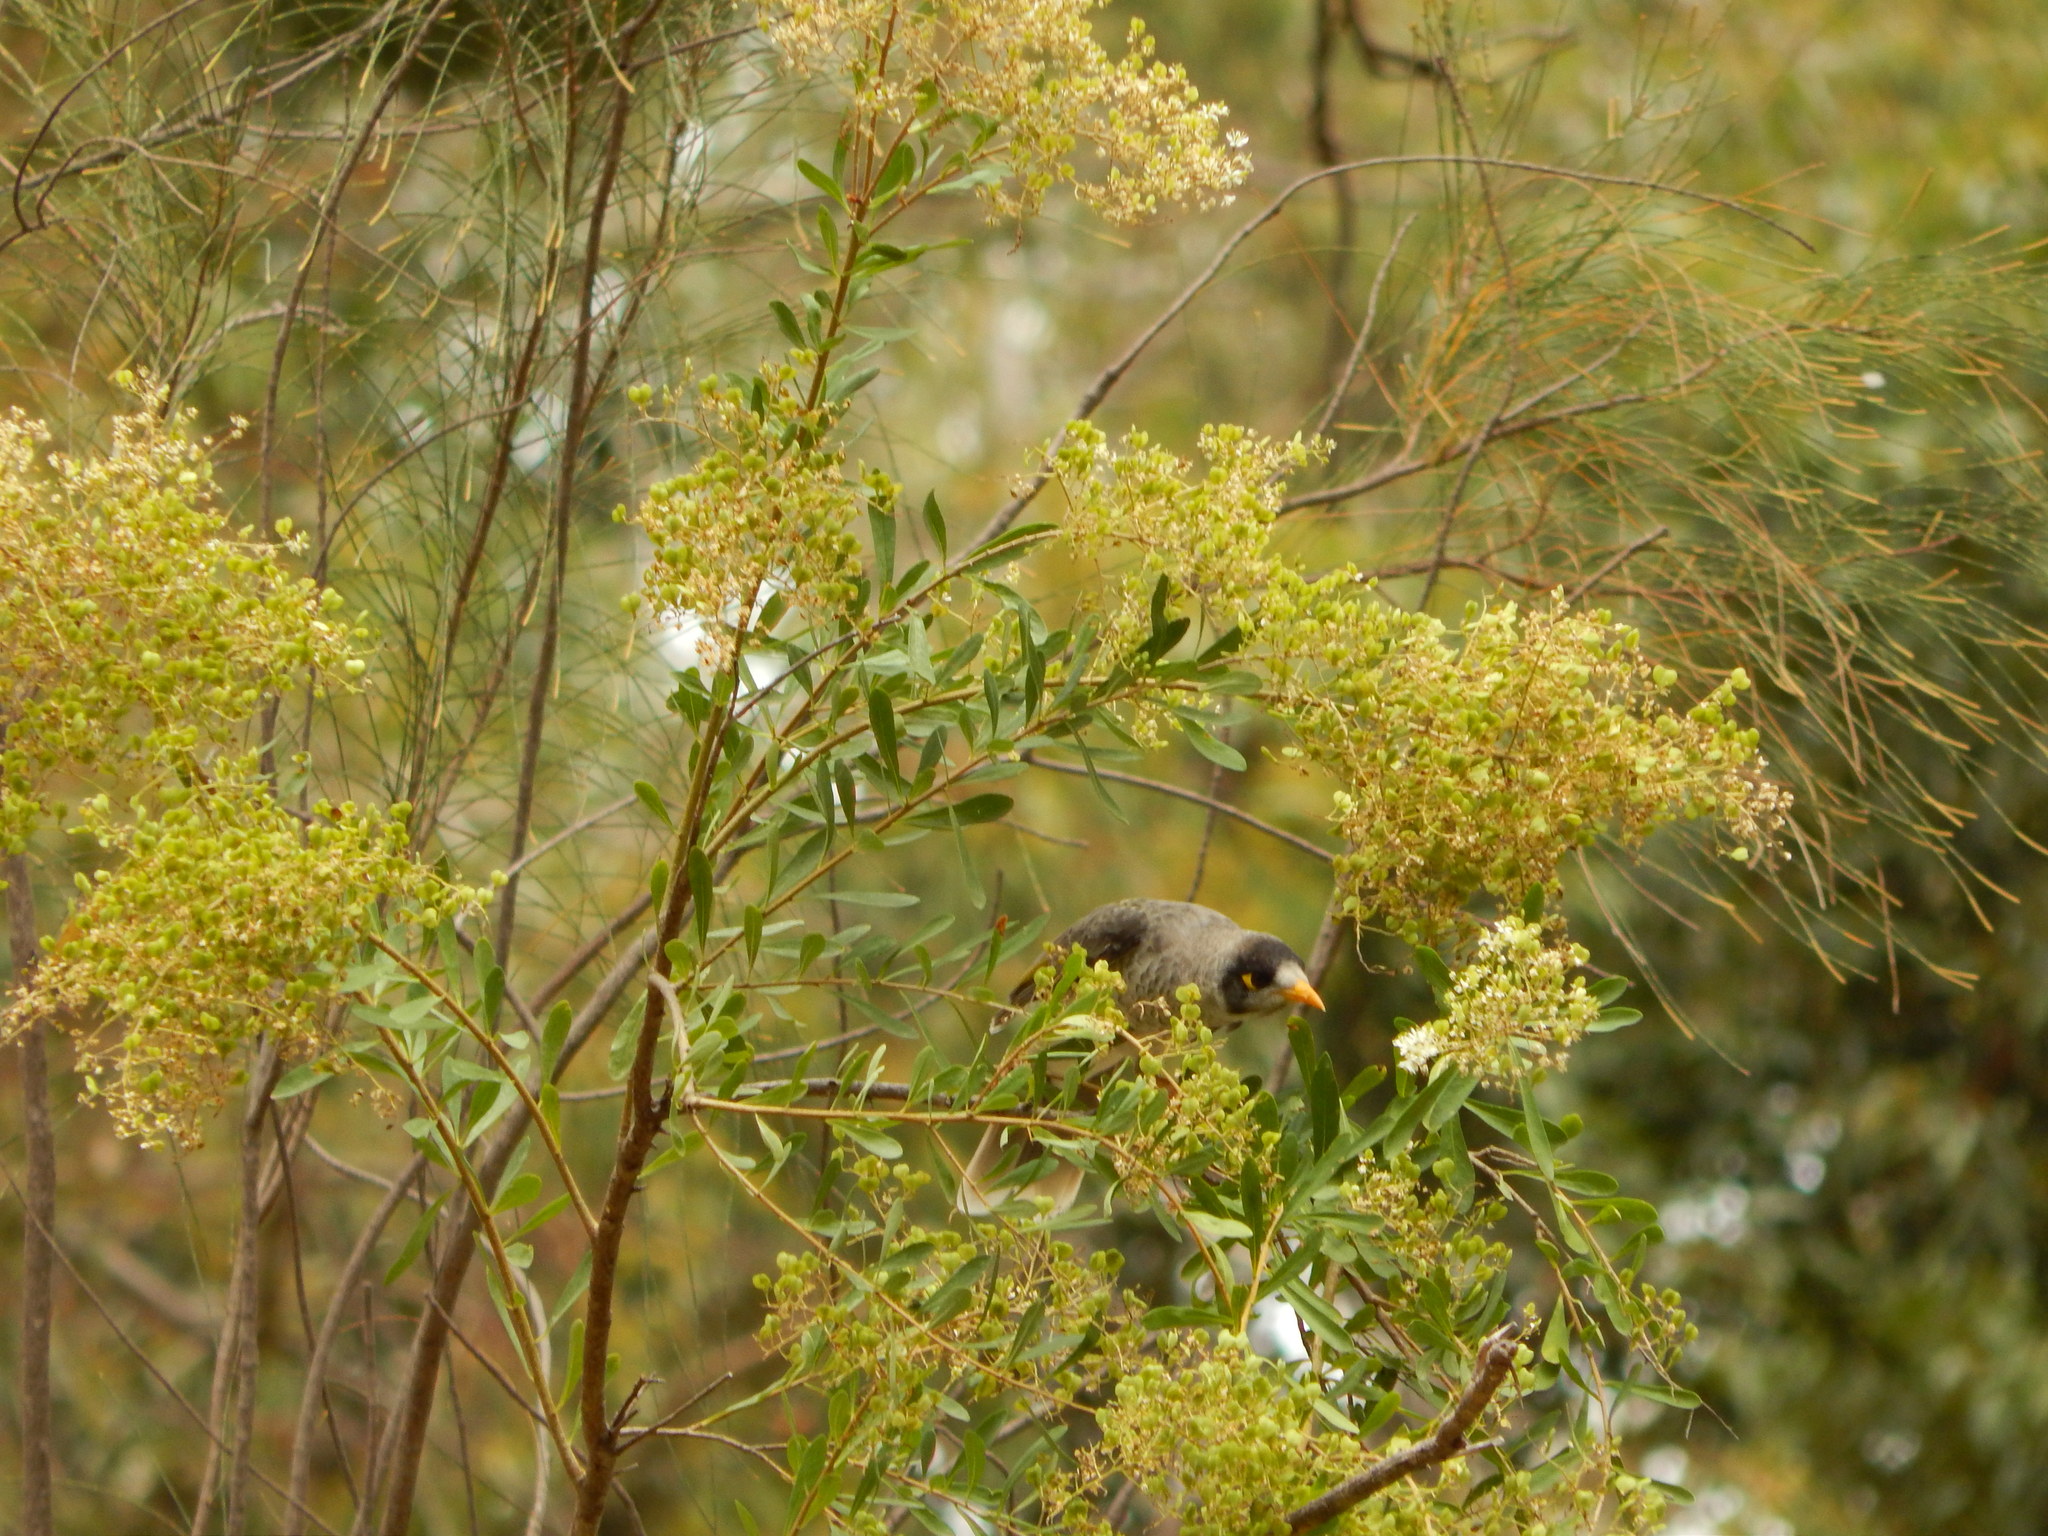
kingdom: Animalia
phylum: Chordata
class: Aves
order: Passeriformes
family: Meliphagidae
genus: Manorina
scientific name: Manorina melanocephala
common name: Noisy miner
